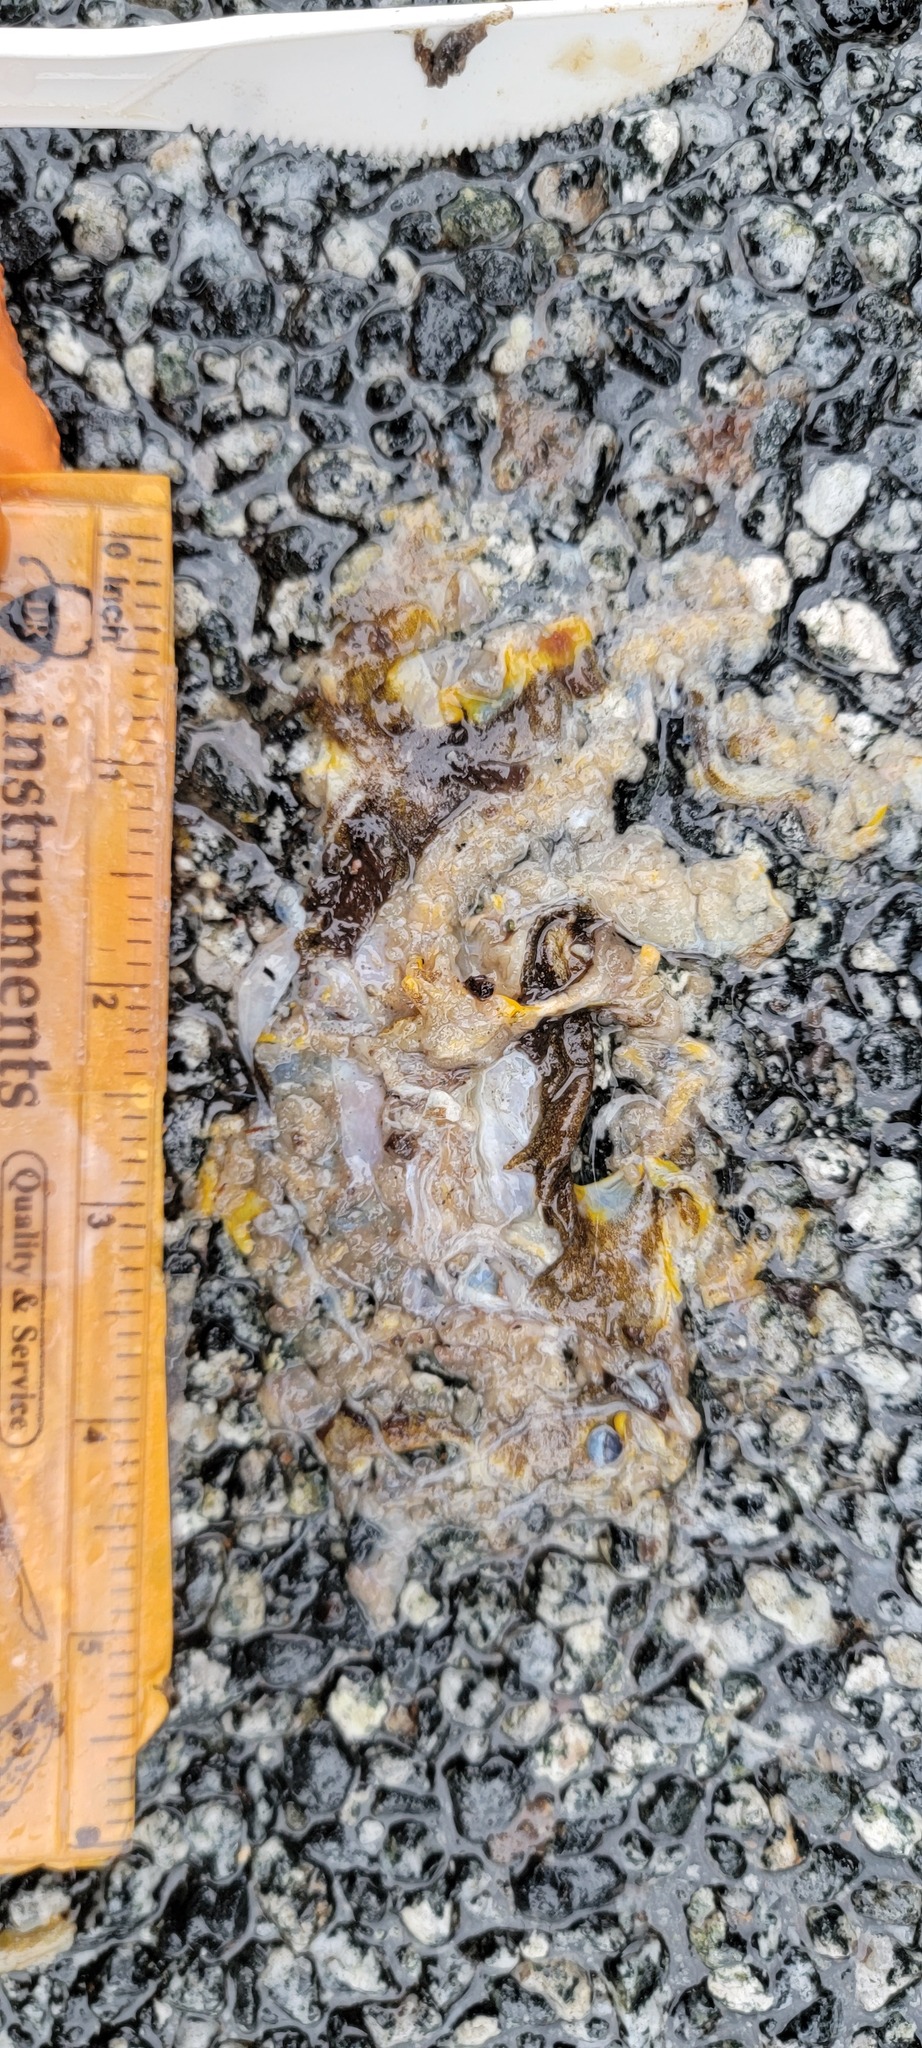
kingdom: Animalia
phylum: Chordata
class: Amphibia
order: Caudata
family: Salamandridae
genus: Taricha
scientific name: Taricha
